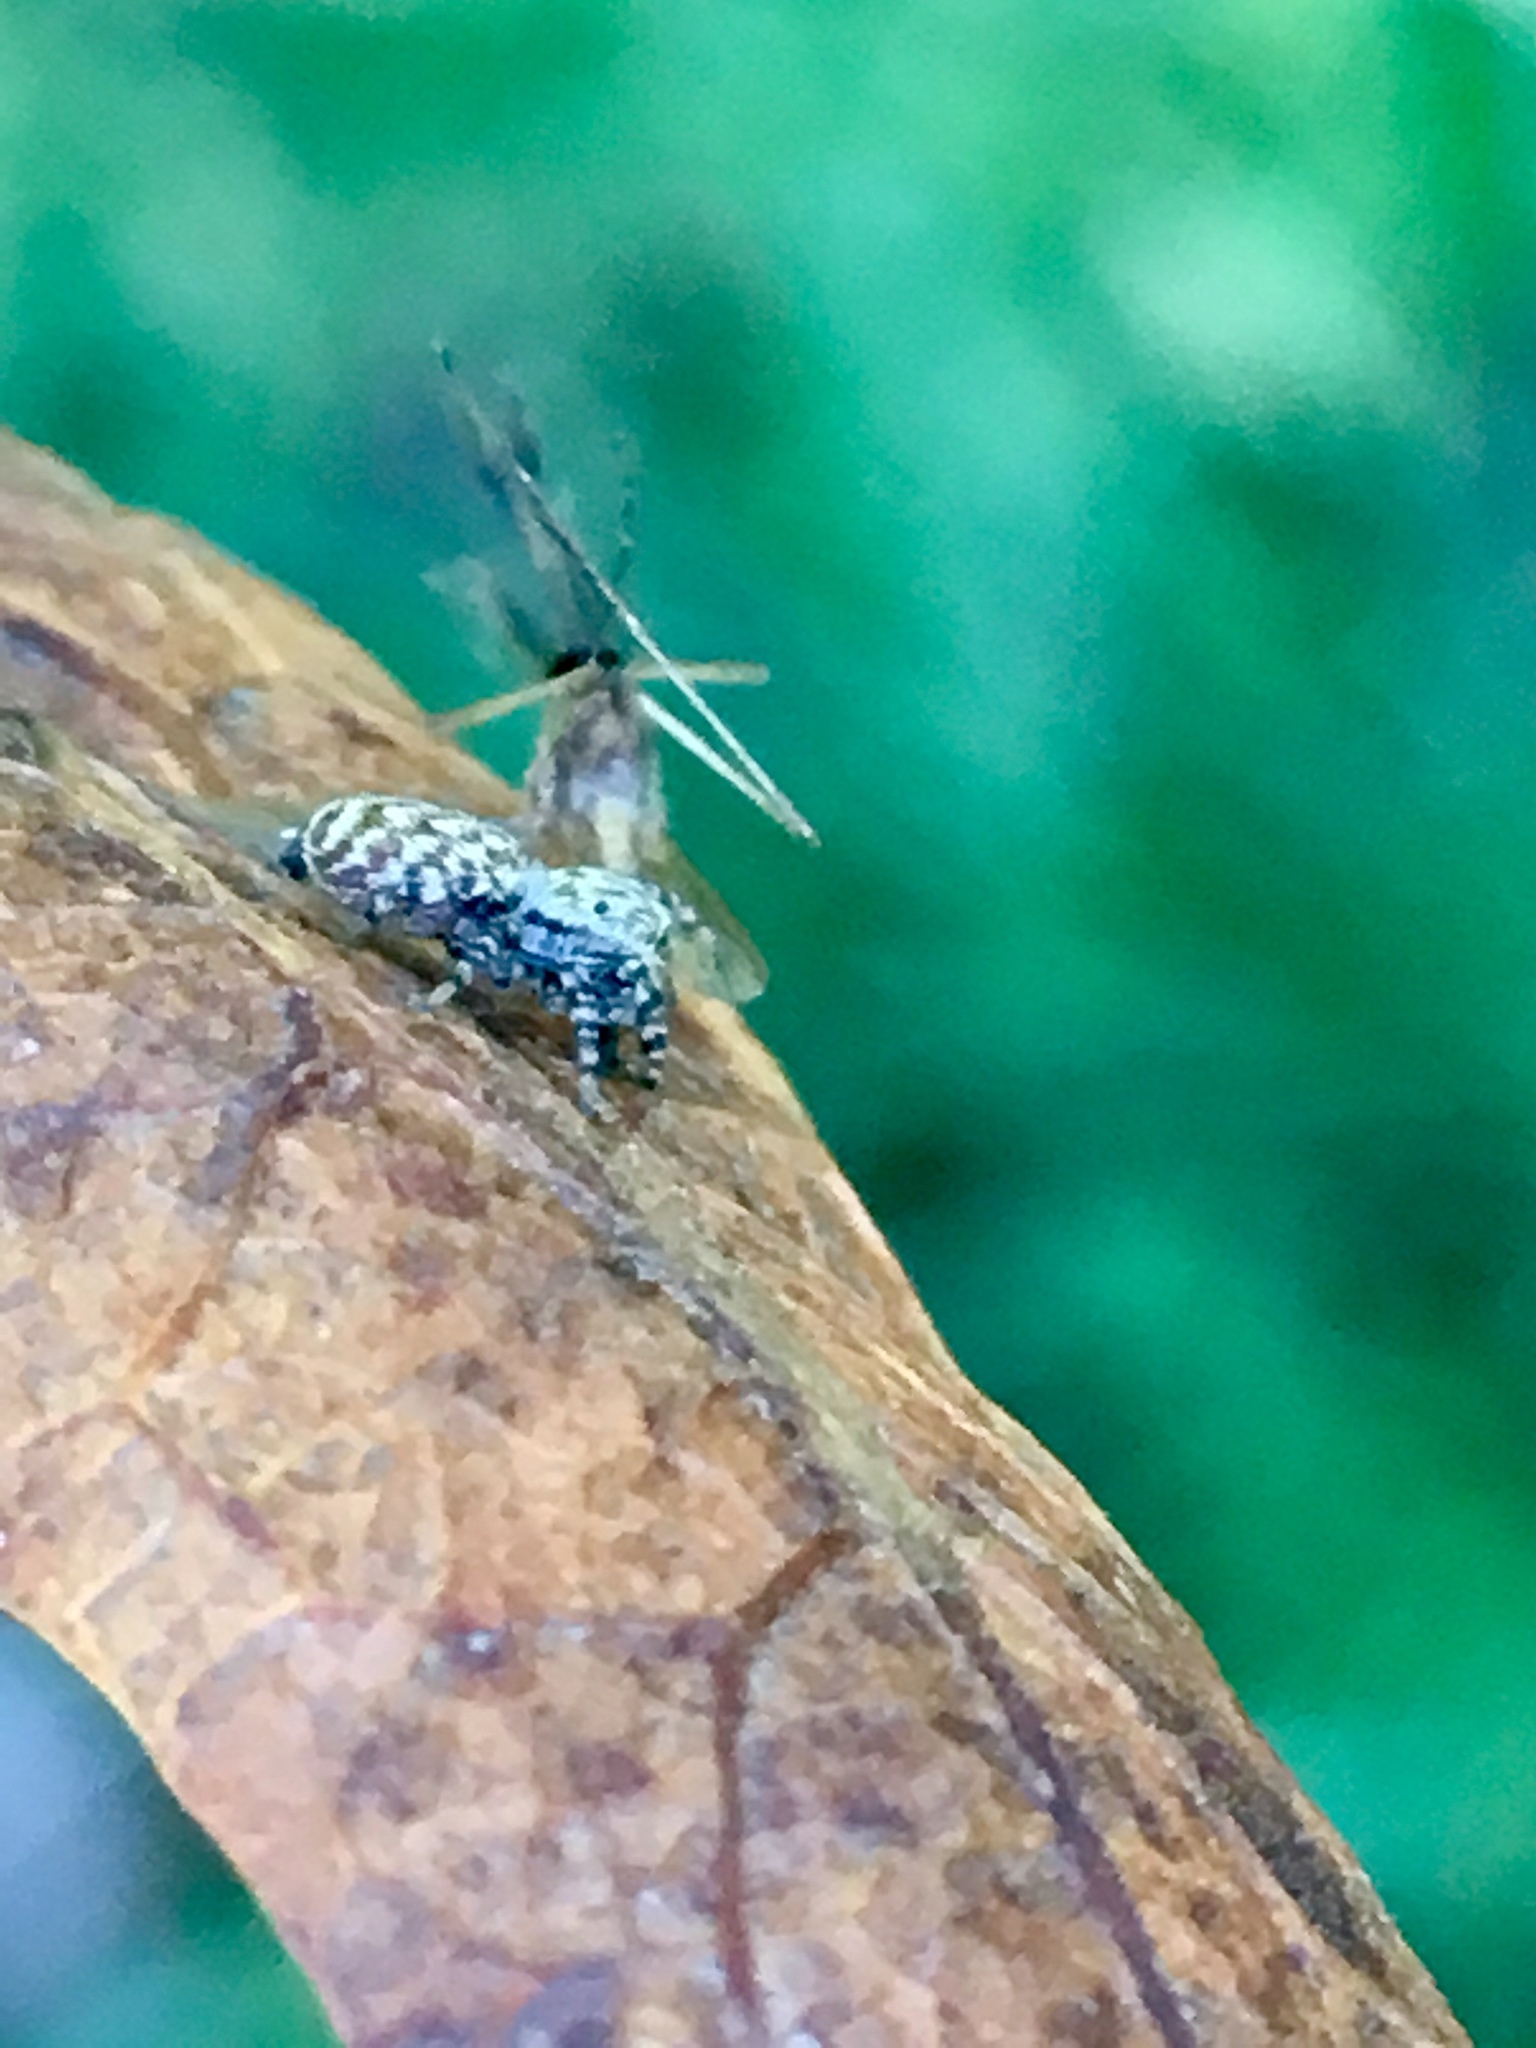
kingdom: Animalia
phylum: Arthropoda
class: Arachnida
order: Araneae
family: Salticidae
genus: Pelegrina
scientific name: Pelegrina galathea
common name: Jumping spiders
